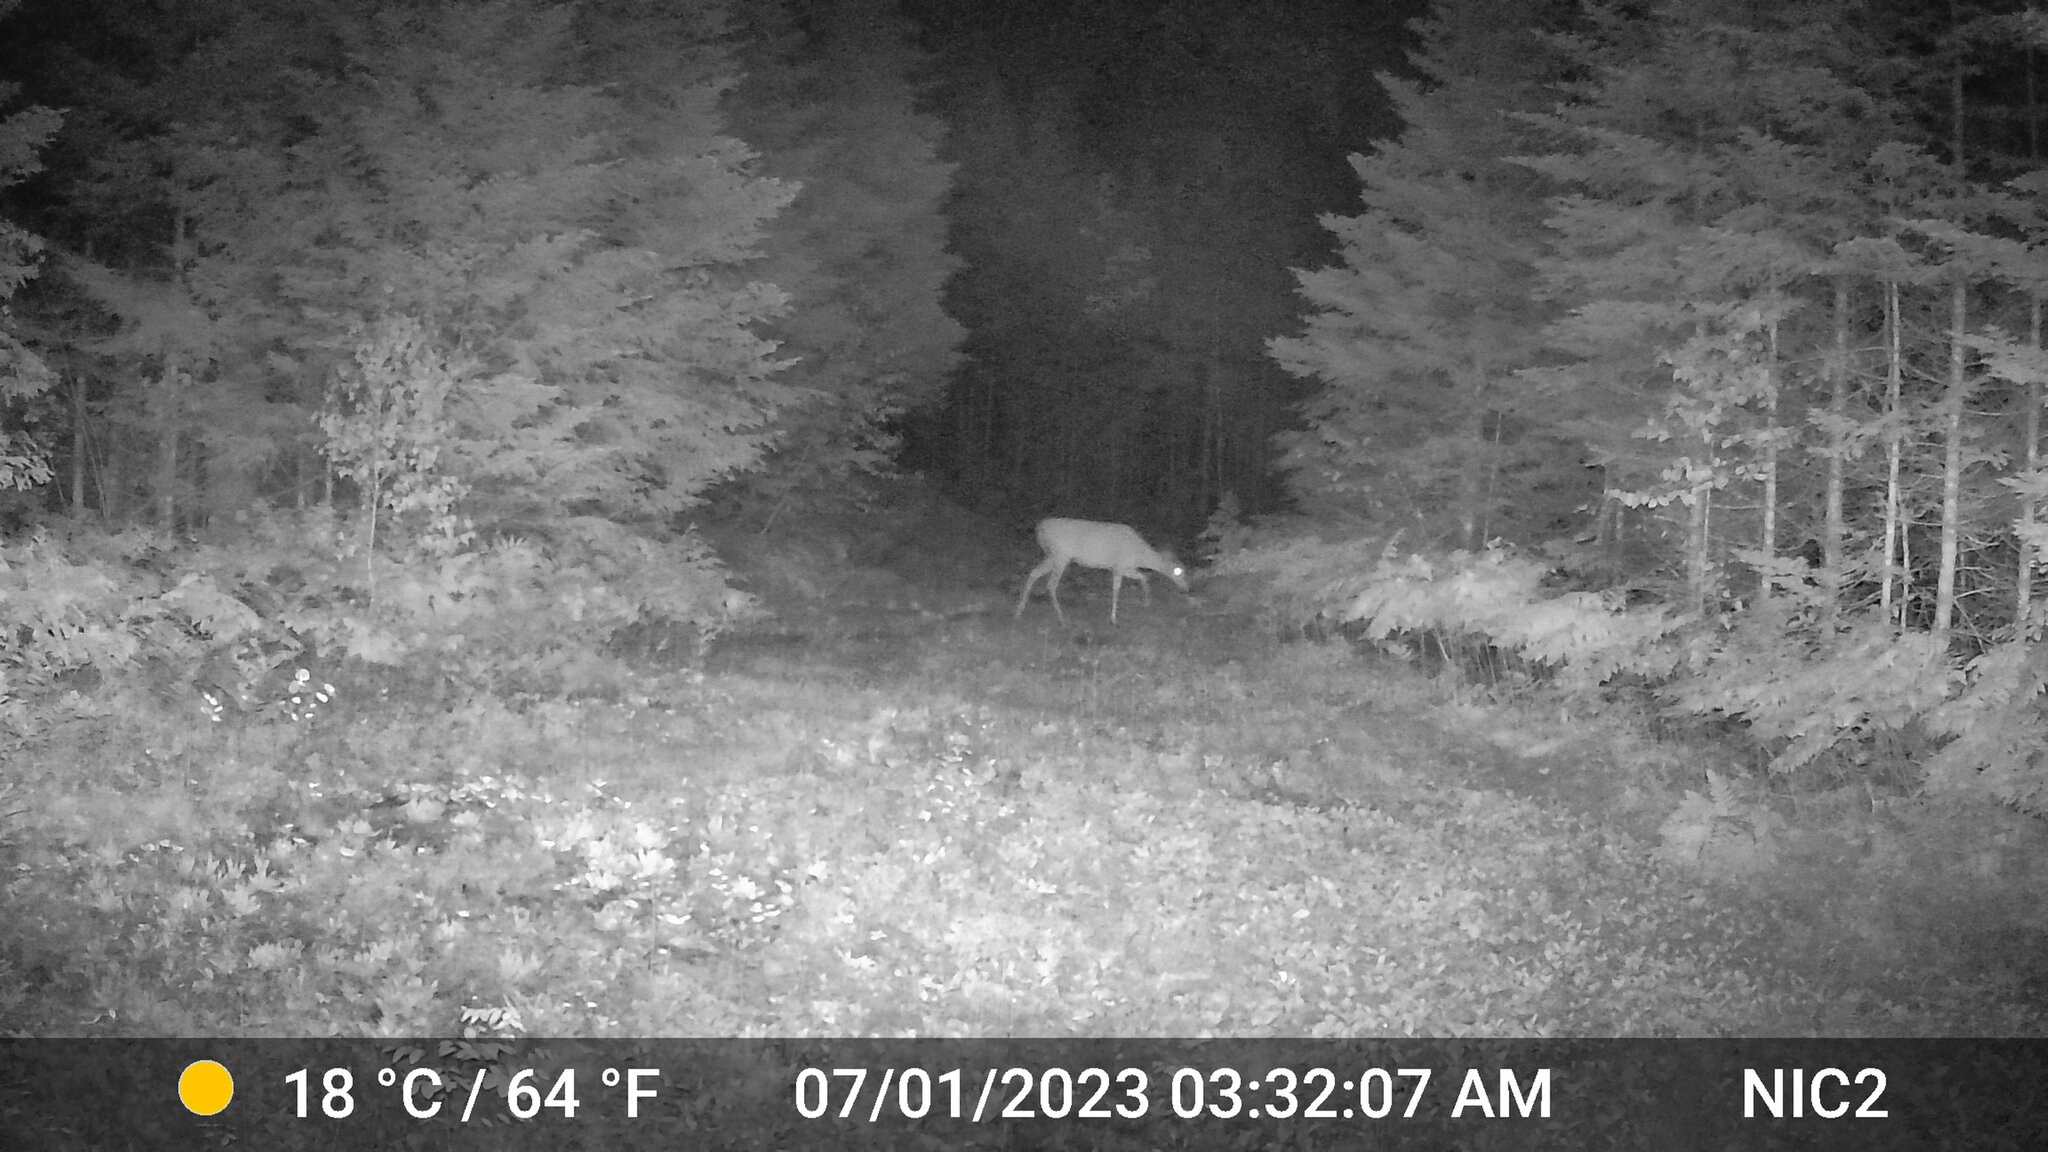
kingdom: Animalia
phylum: Chordata
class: Mammalia
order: Artiodactyla
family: Cervidae
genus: Odocoileus
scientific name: Odocoileus virginianus
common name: White-tailed deer
